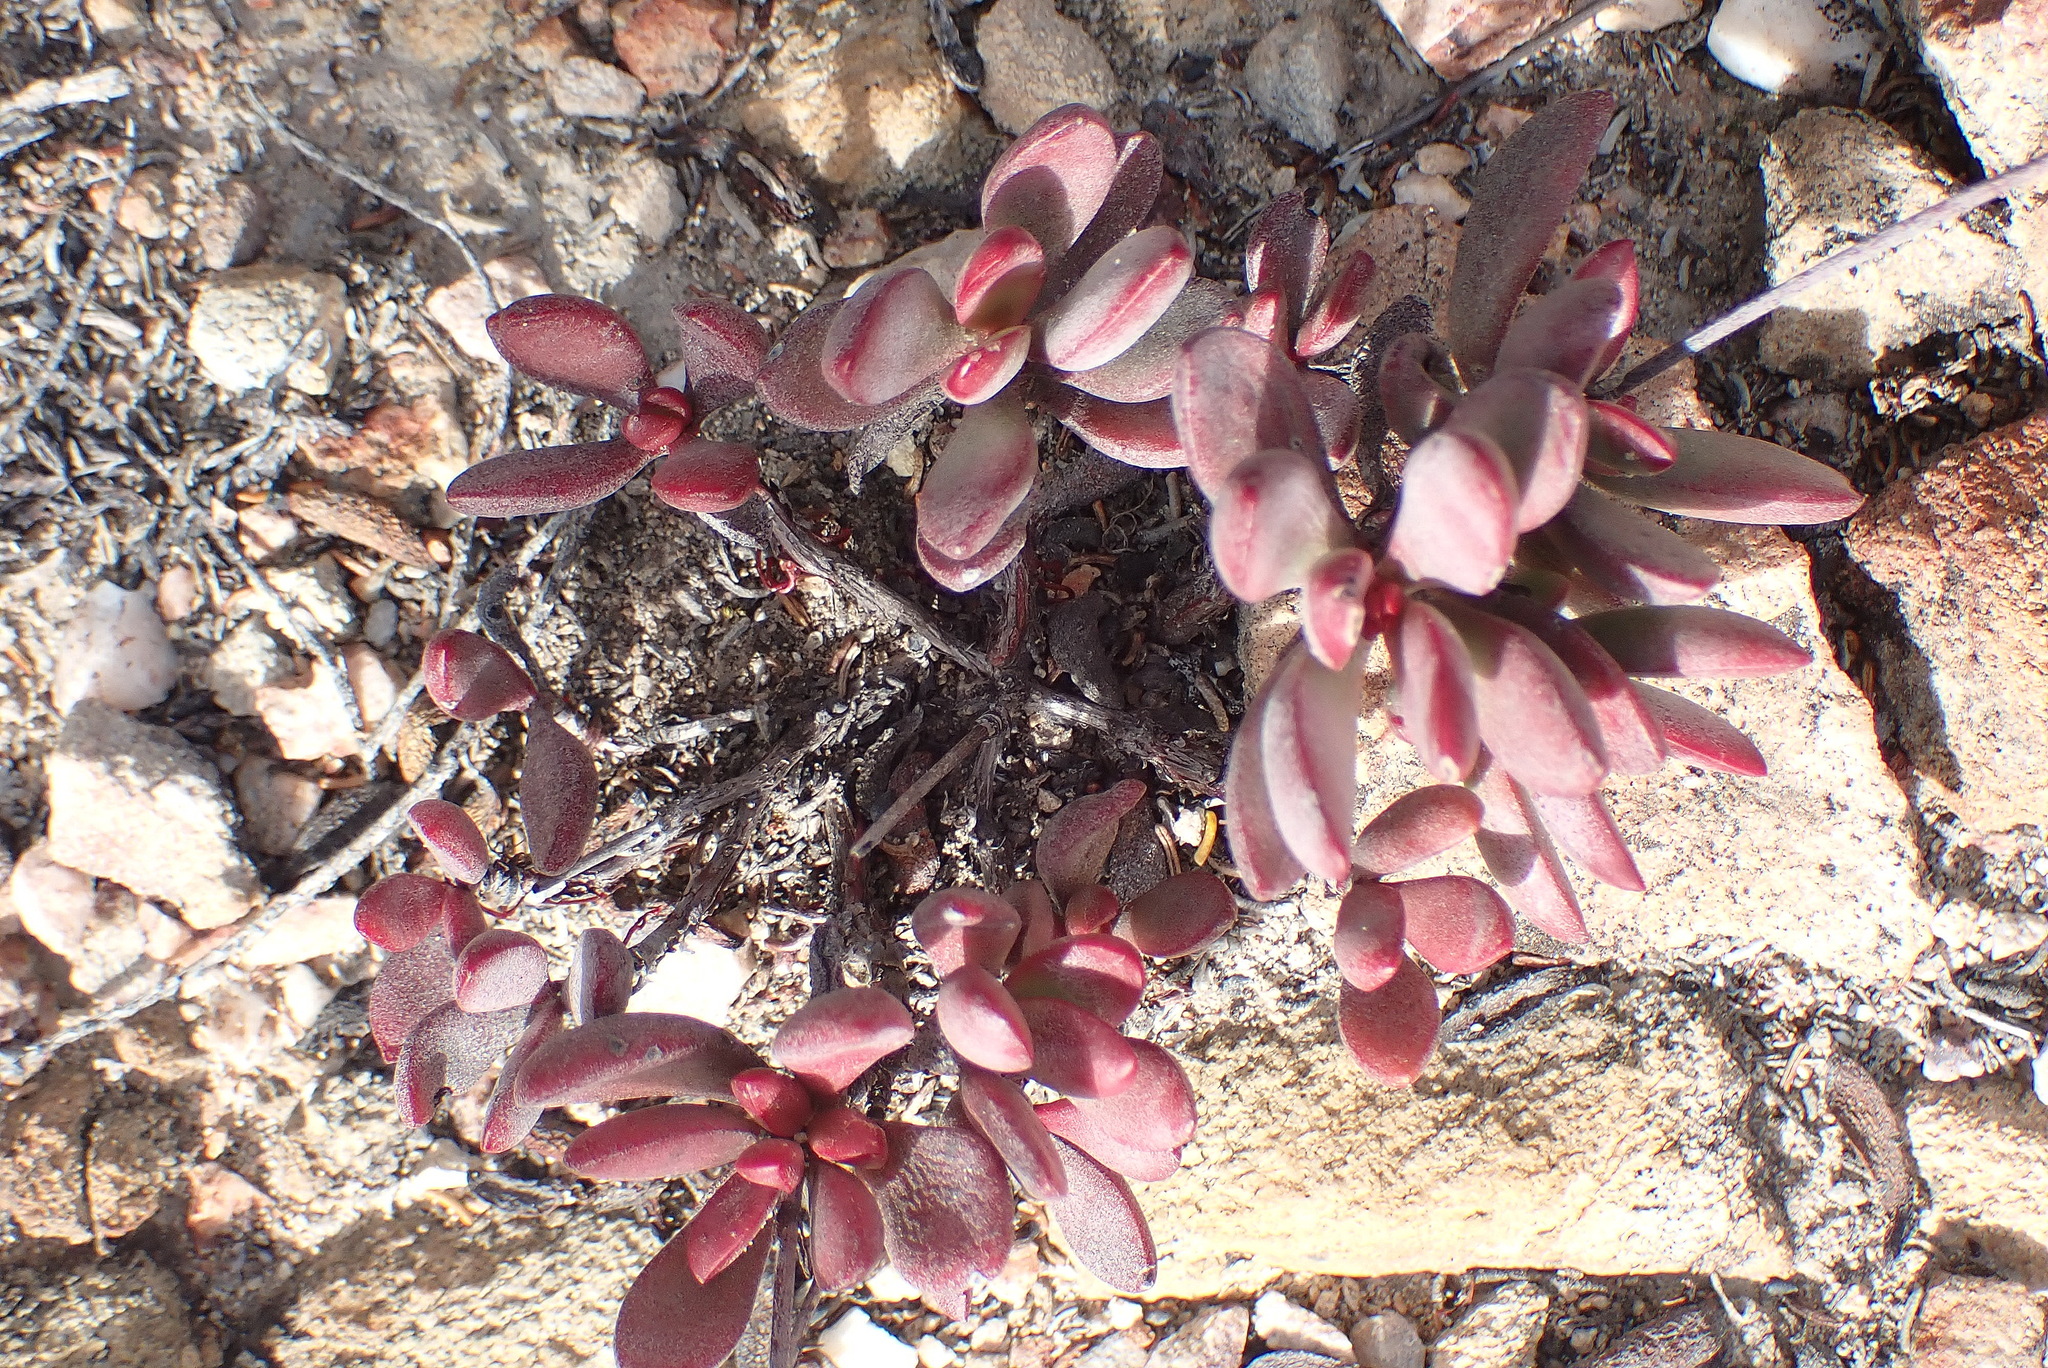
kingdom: Plantae
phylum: Tracheophyta
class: Magnoliopsida
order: Saxifragales
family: Crassulaceae
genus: Crassula
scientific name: Crassula atropurpurea
